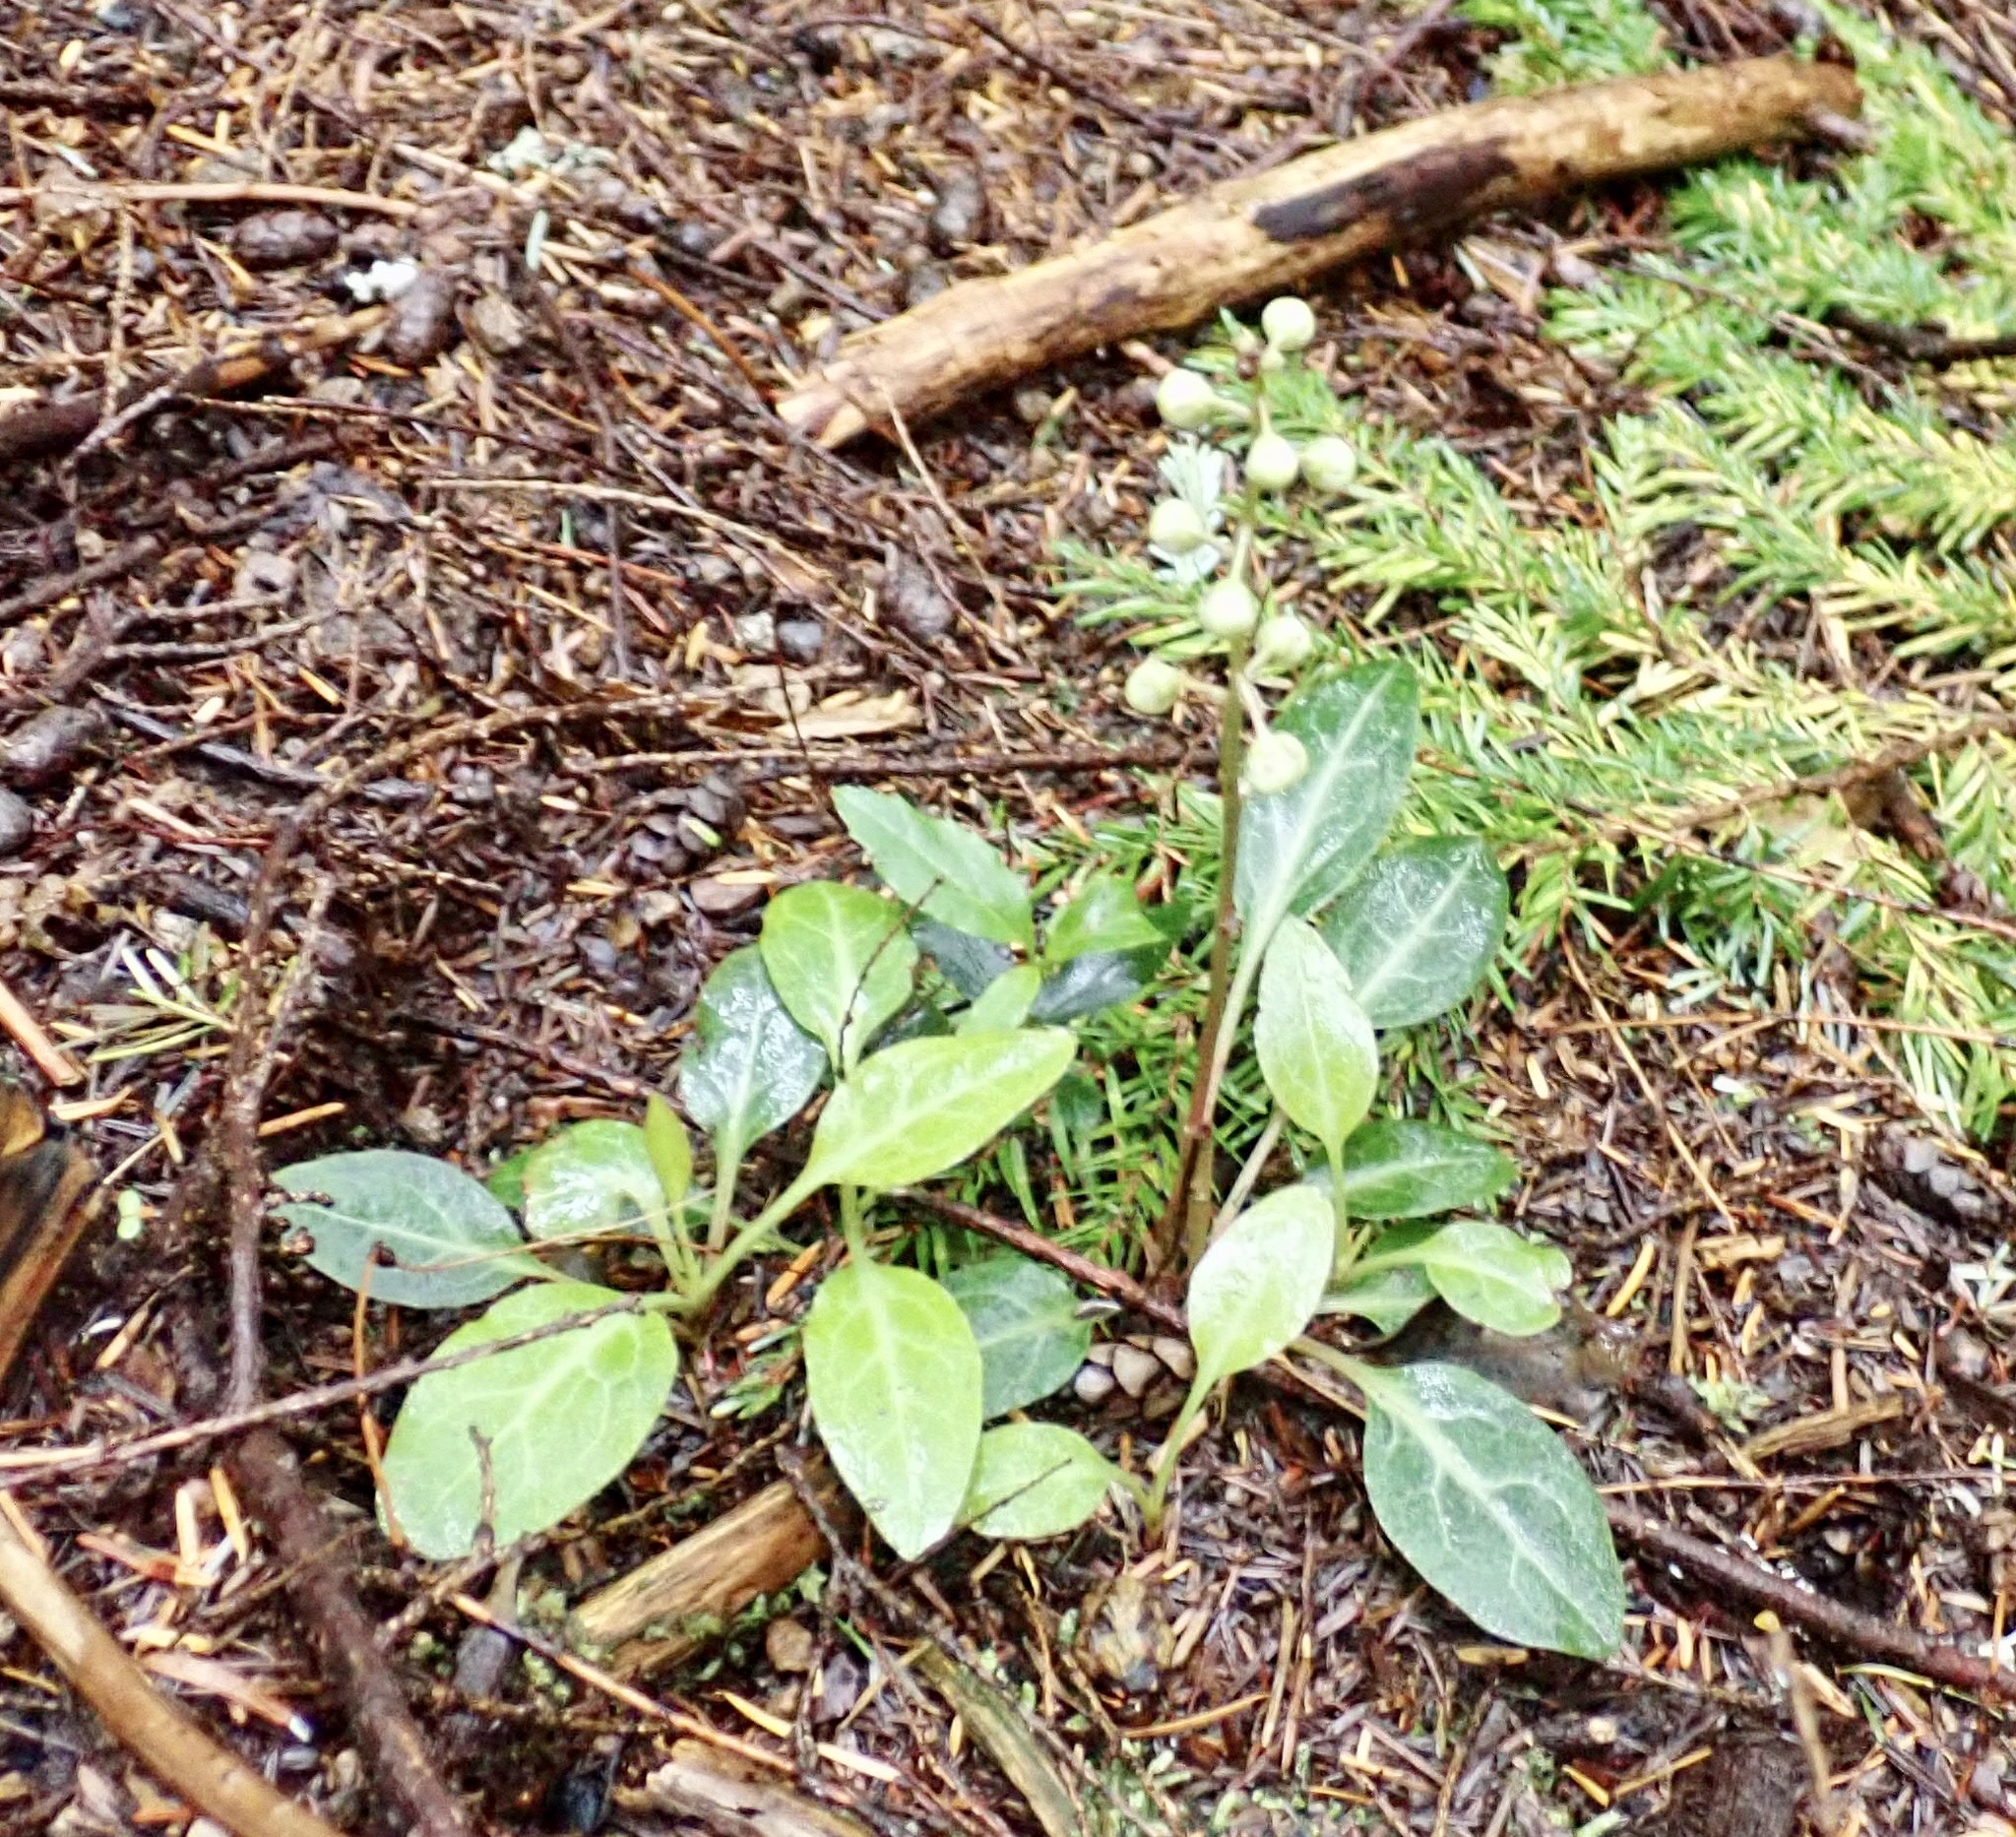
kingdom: Plantae
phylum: Tracheophyta
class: Magnoliopsida
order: Ericales
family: Ericaceae
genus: Pyrola
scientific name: Pyrola picta
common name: White-vein wintergreen
